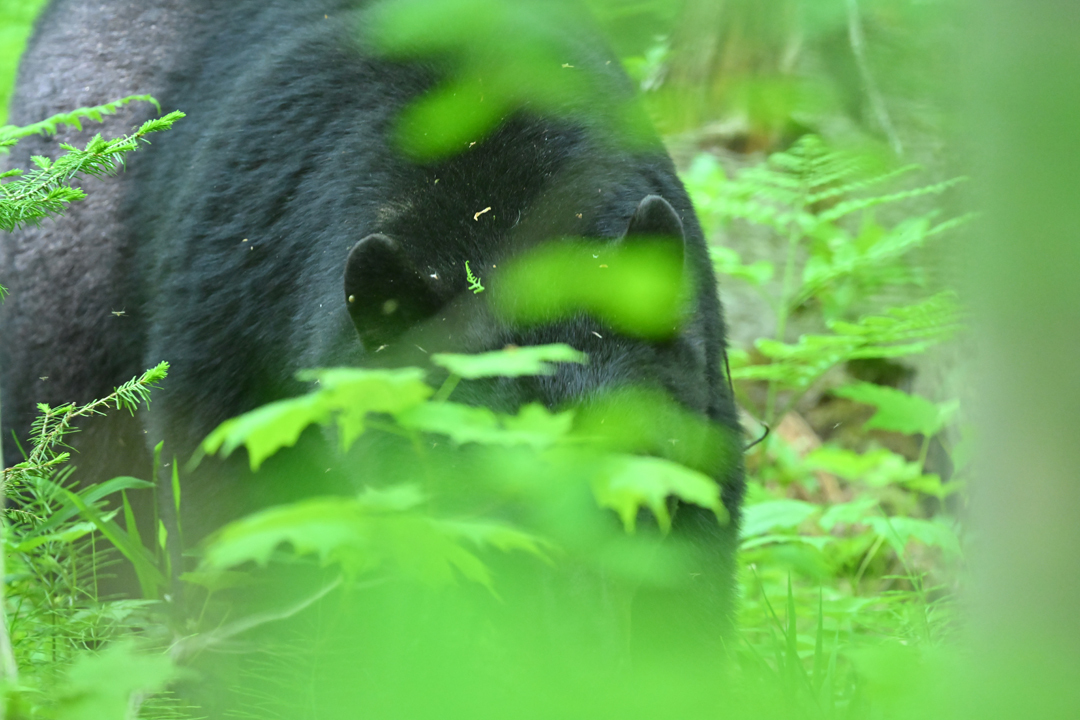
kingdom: Animalia
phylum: Chordata
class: Mammalia
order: Carnivora
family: Ursidae
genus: Ursus
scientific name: Ursus americanus
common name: American black bear
